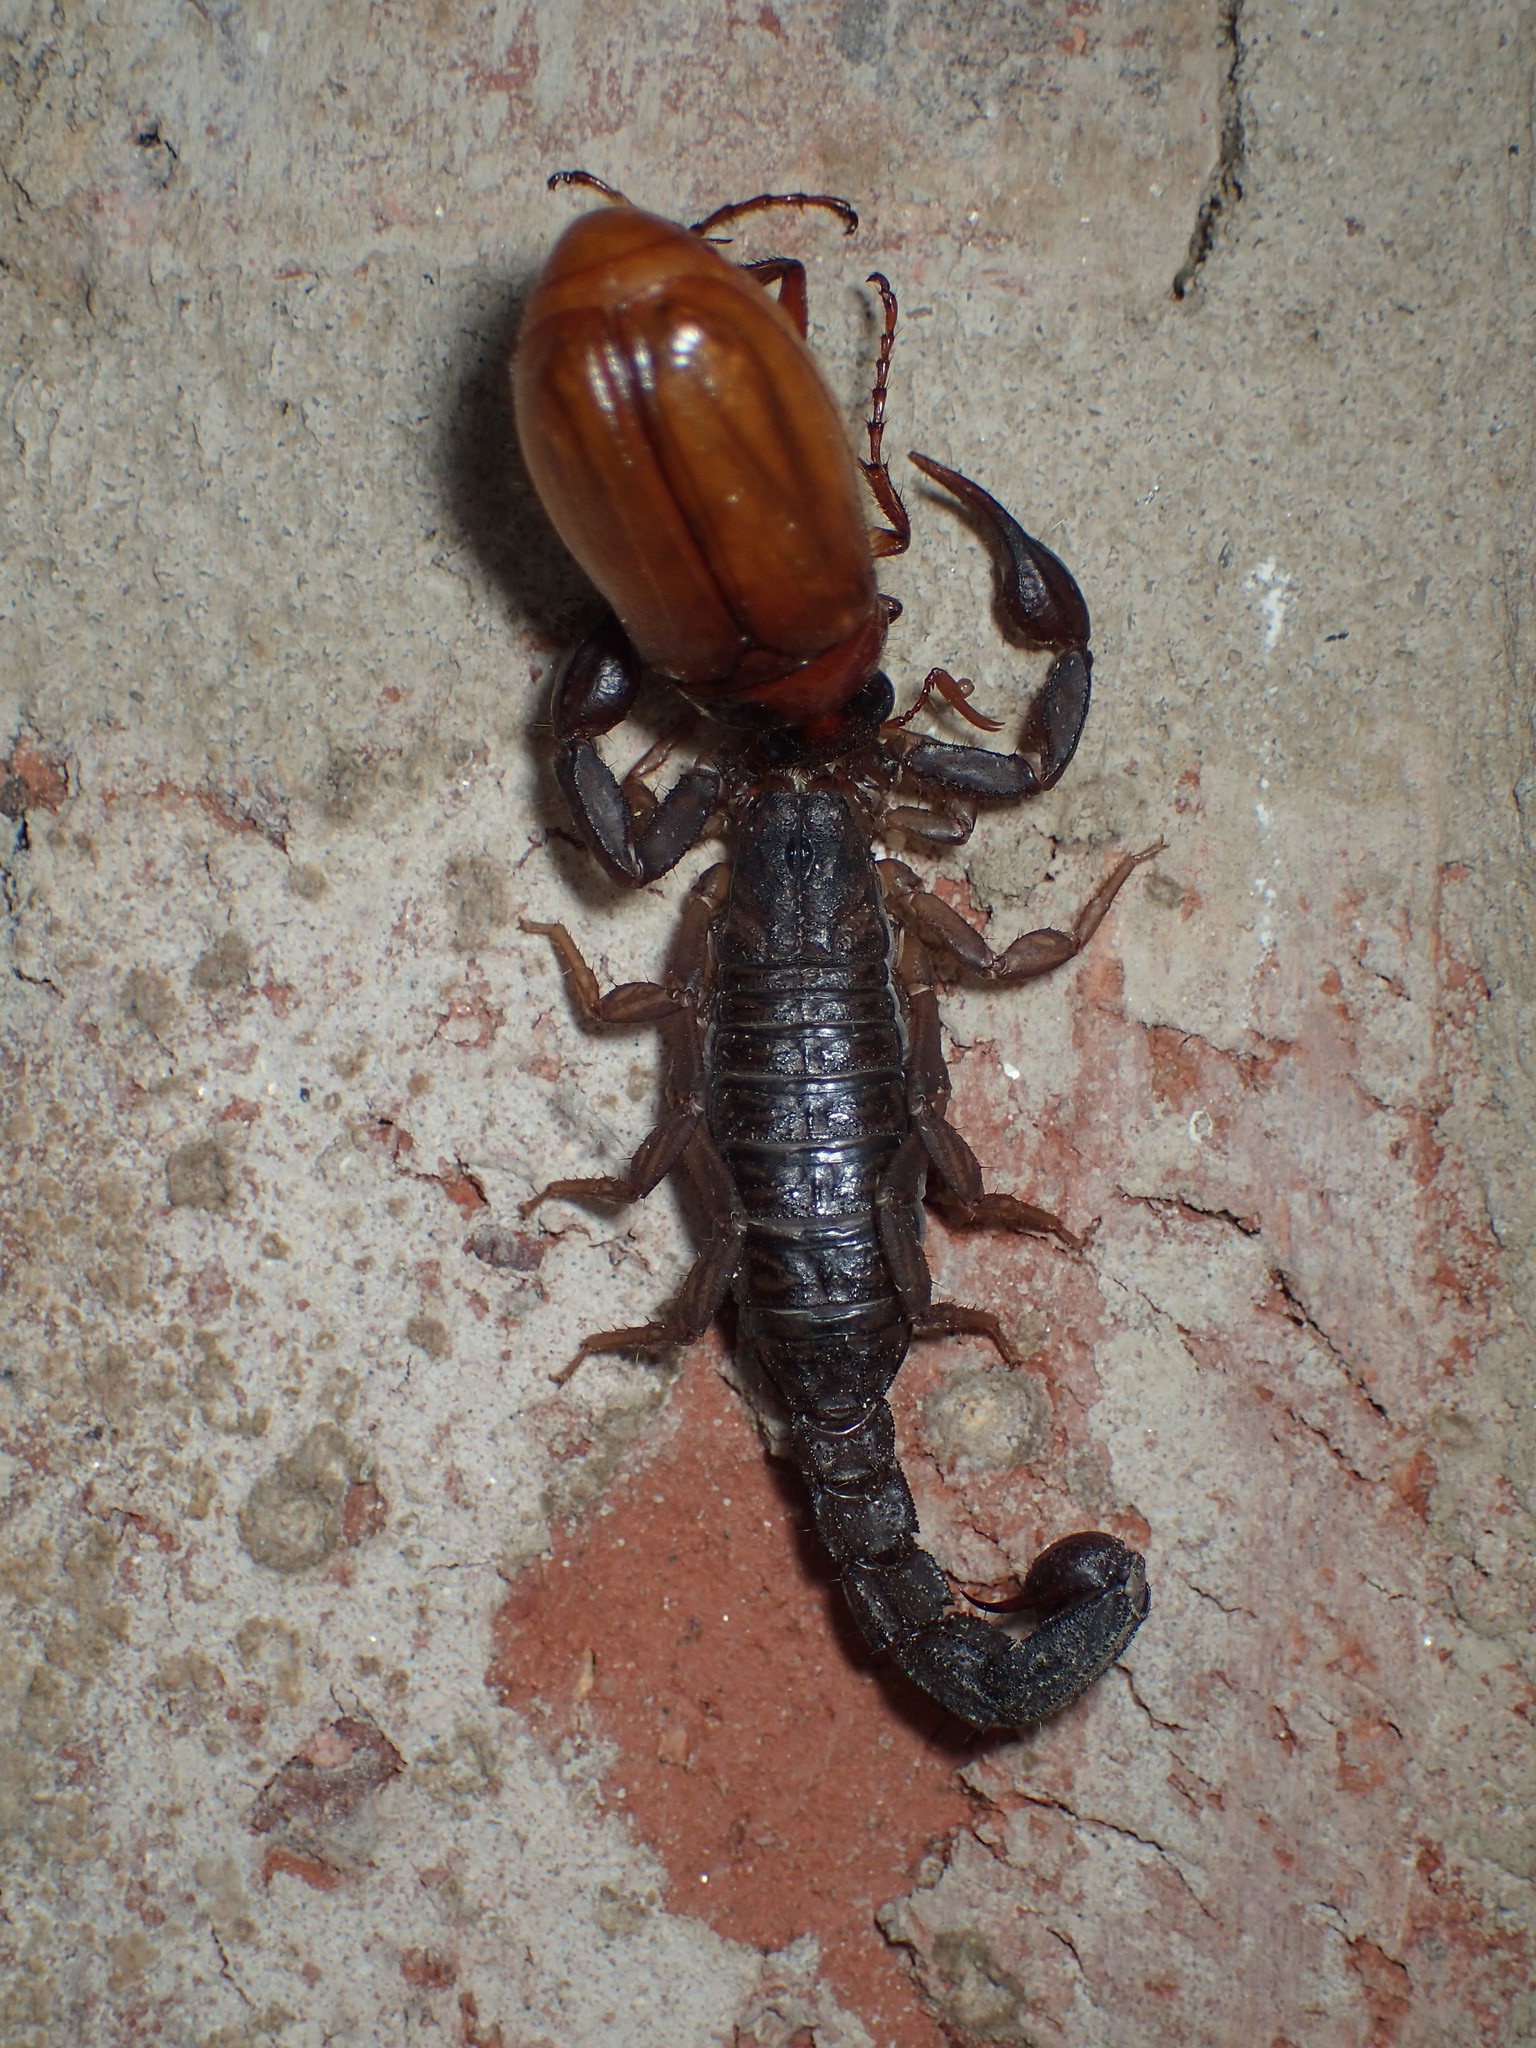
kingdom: Animalia
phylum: Arthropoda
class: Arachnida
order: Scorpiones
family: Vaejovidae
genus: Vaejovis
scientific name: Vaejovis carolinianus
